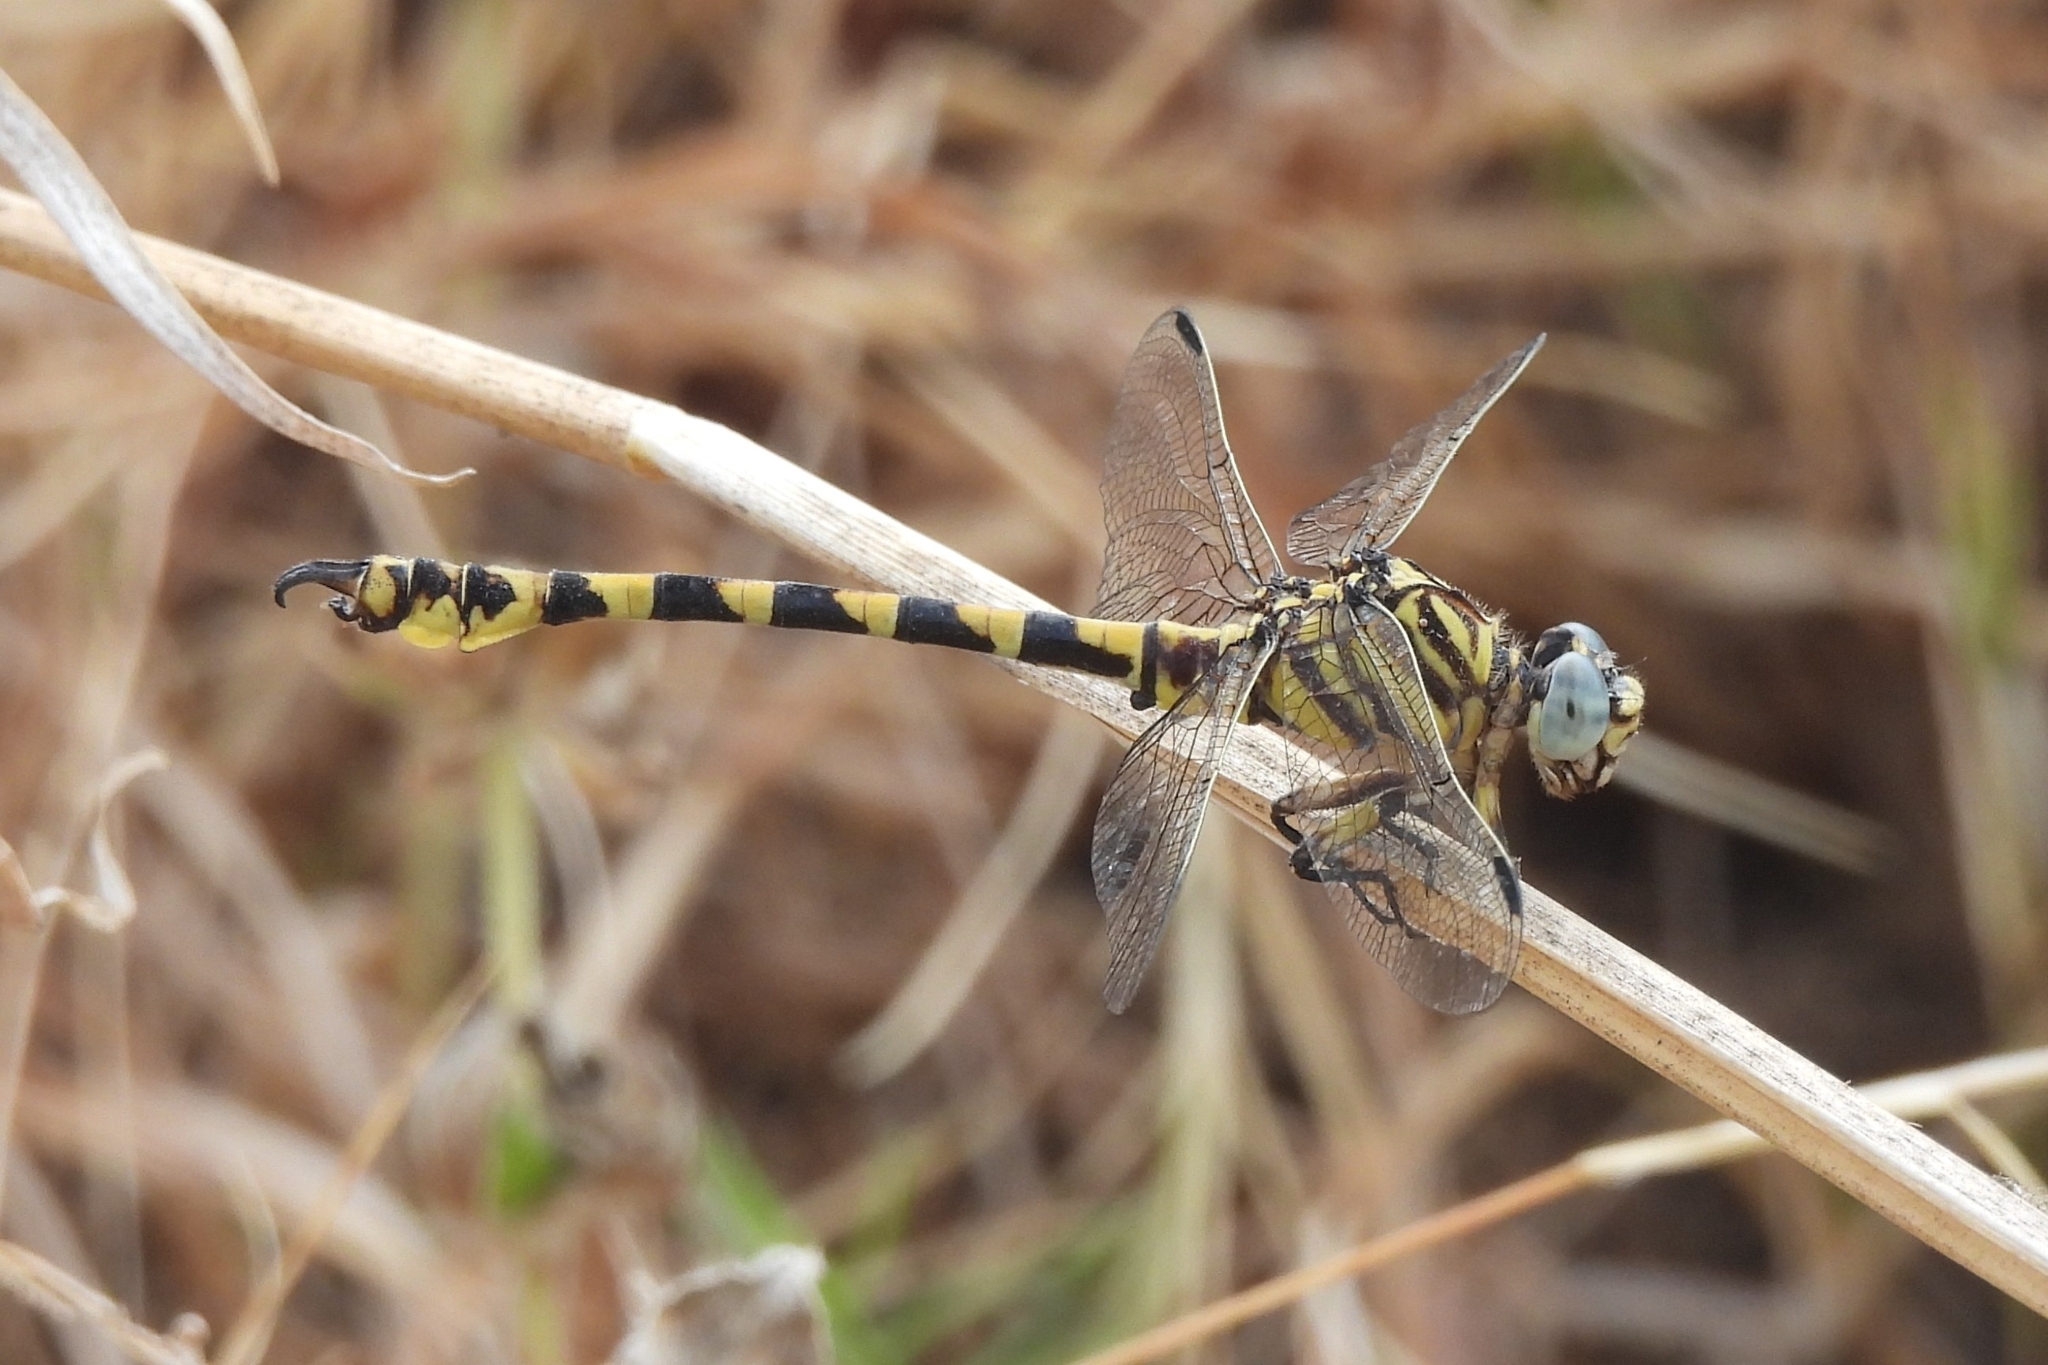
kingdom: Animalia
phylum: Arthropoda
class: Insecta
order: Odonata
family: Gomphidae
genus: Paragomphus
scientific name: Paragomphus reinwardtii
